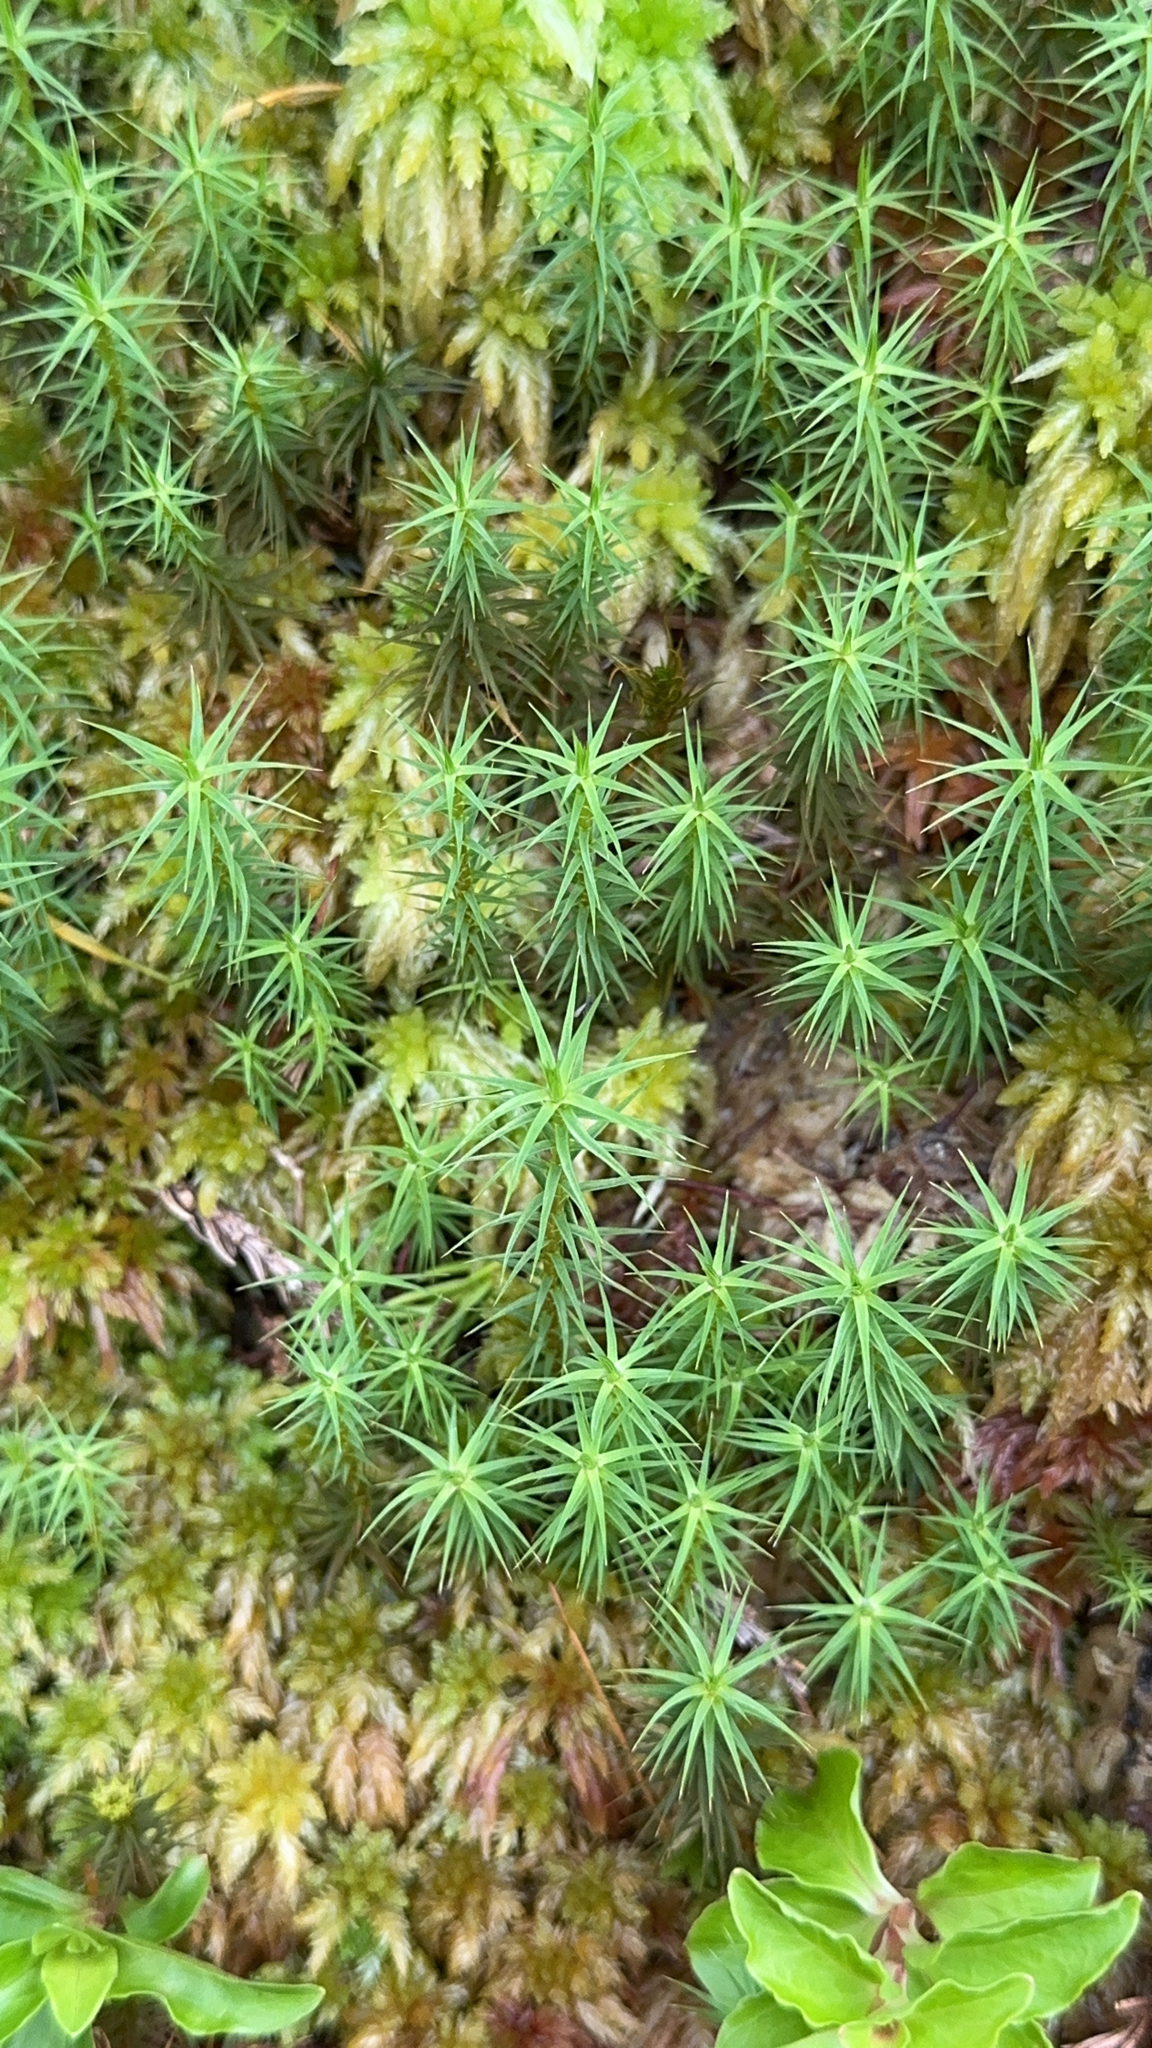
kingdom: Plantae
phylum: Bryophyta
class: Polytrichopsida
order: Polytrichales
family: Polytrichaceae
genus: Polytrichum
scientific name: Polytrichum commune
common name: Common haircap
